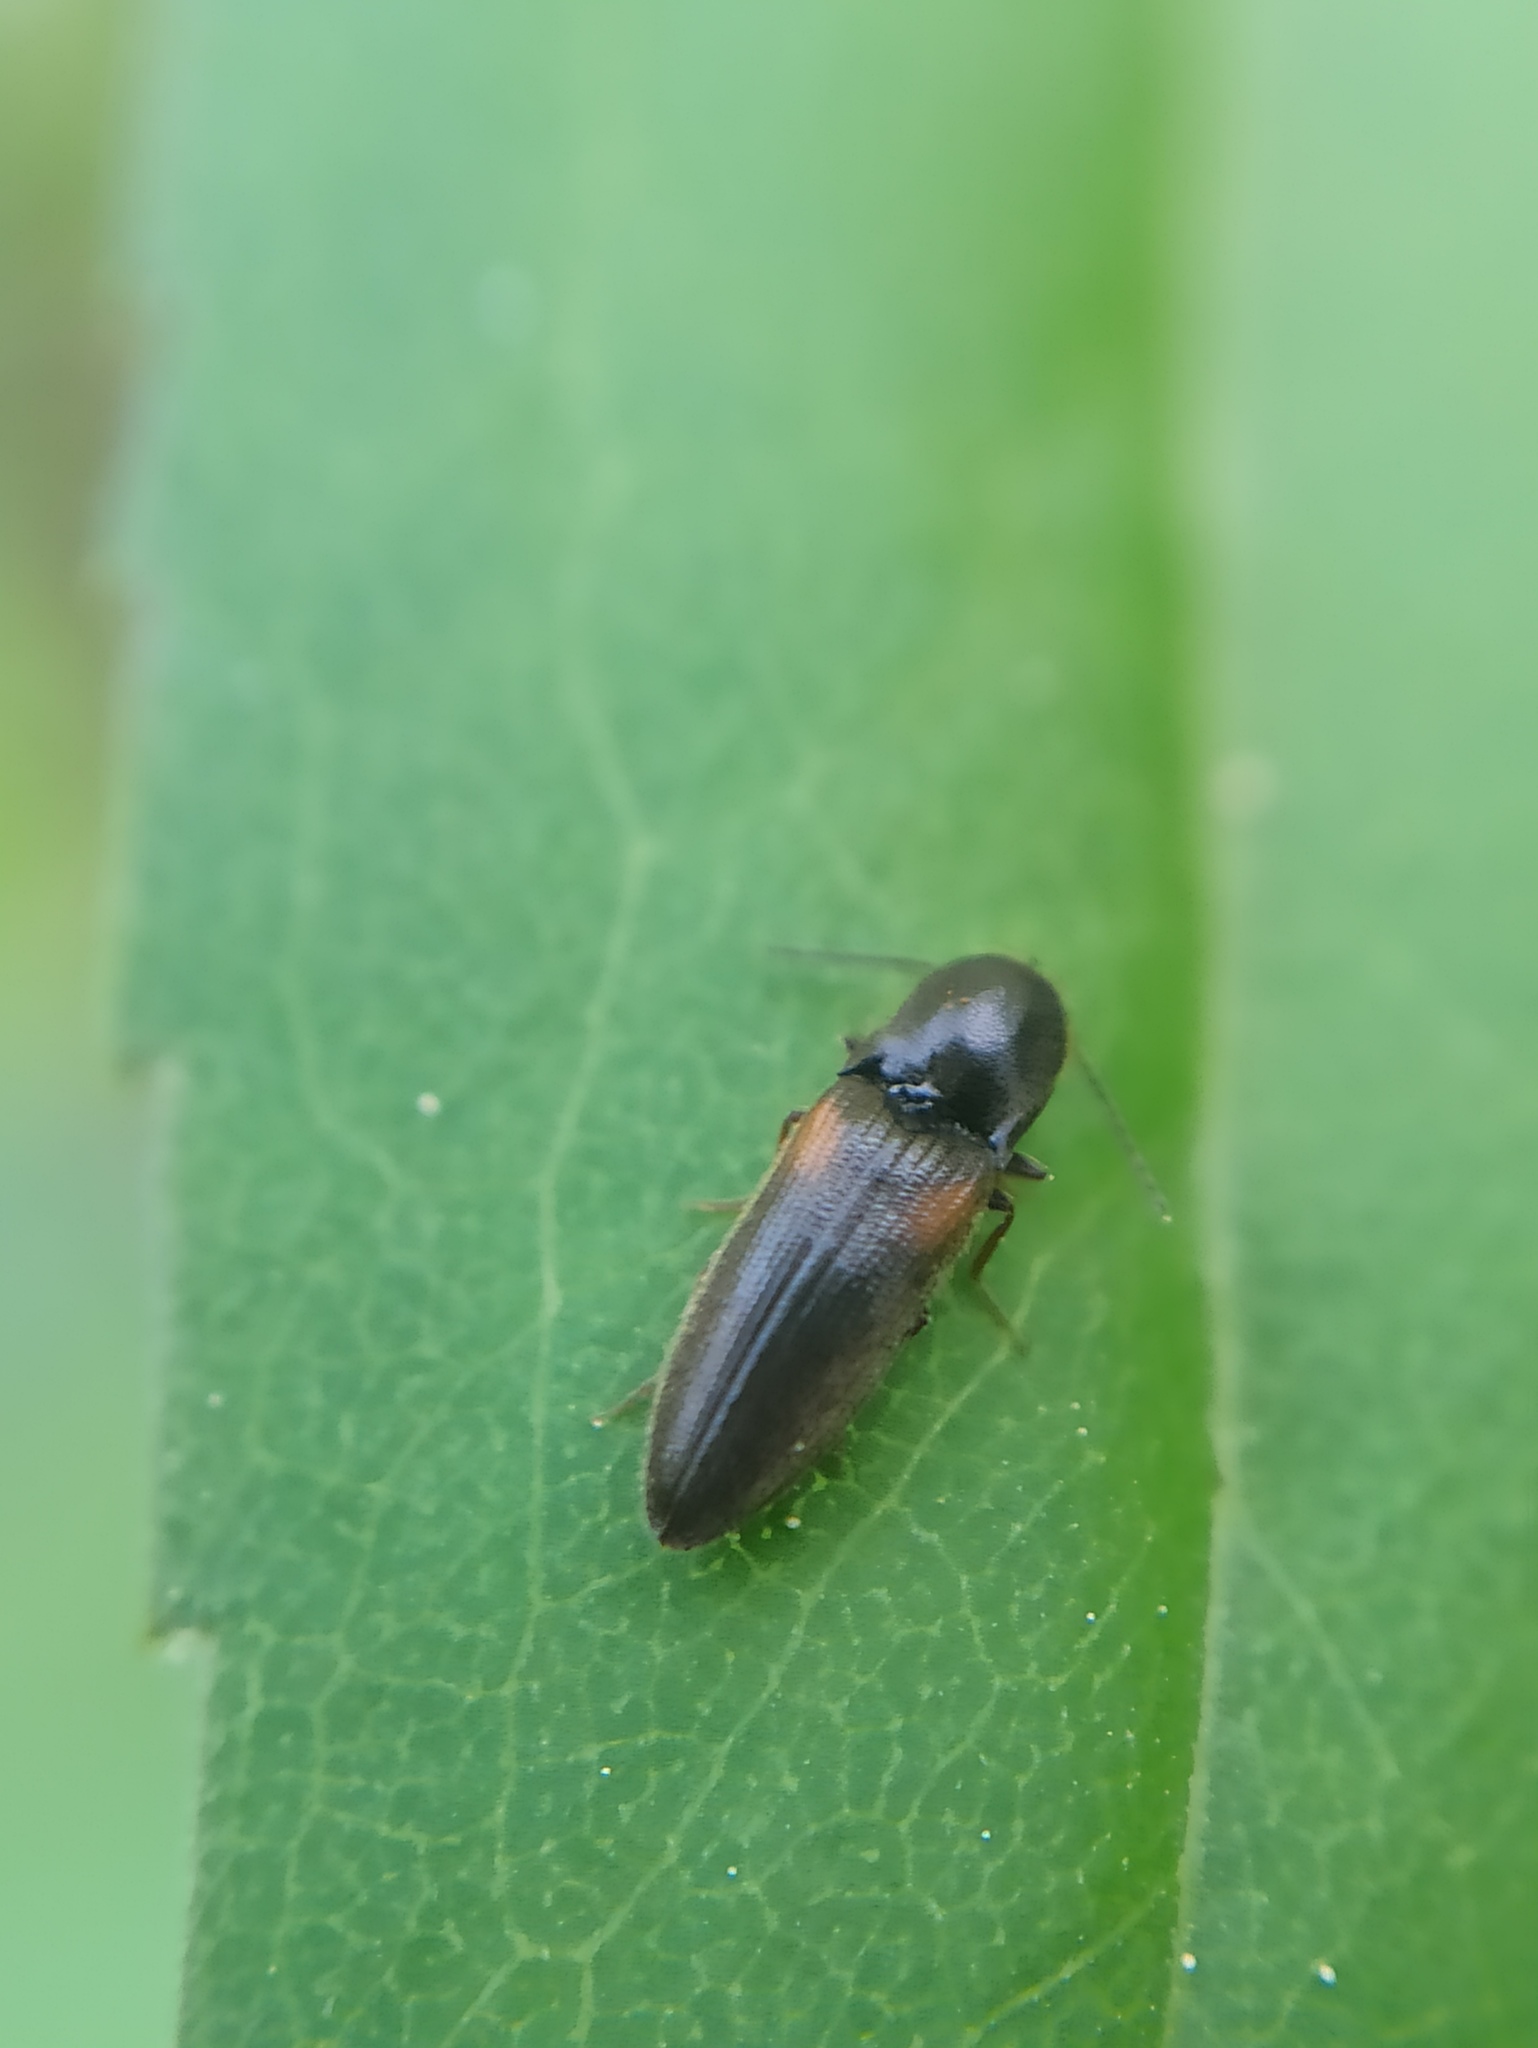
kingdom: Animalia
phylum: Arthropoda
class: Insecta
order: Coleoptera
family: Elateridae
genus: Idolus
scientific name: Idolus picipennis
